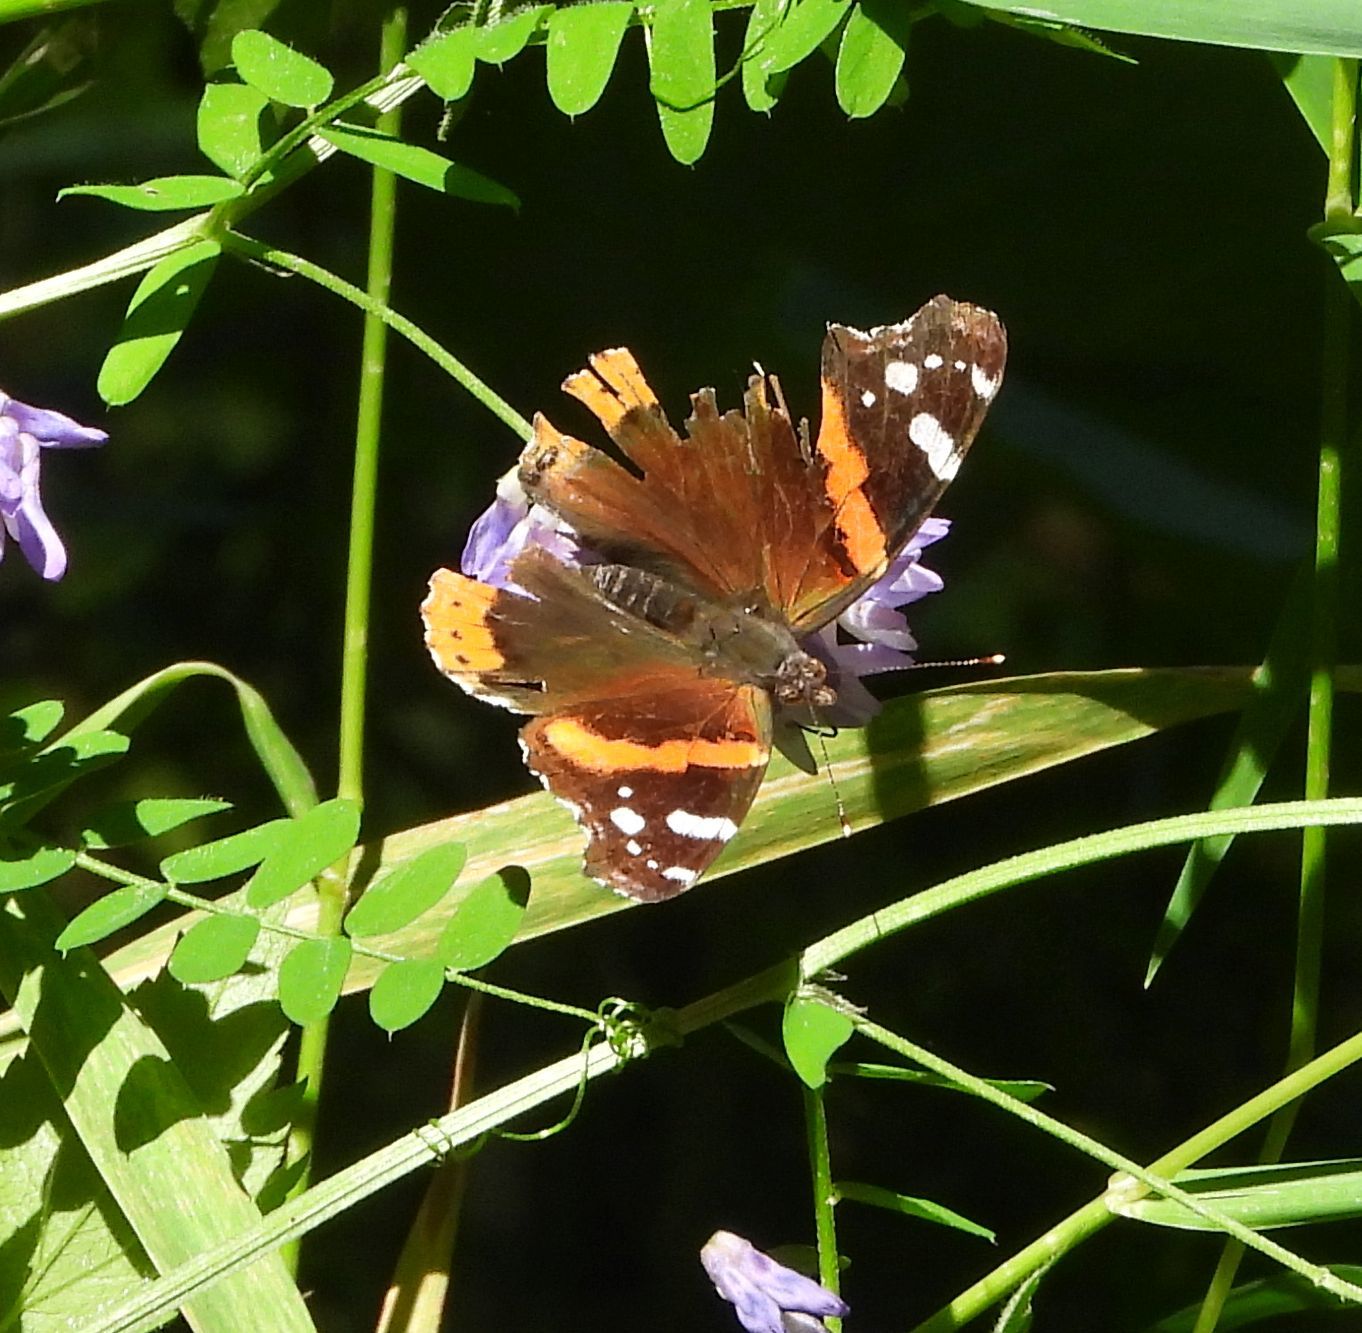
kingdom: Animalia
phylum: Arthropoda
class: Insecta
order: Lepidoptera
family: Nymphalidae
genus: Vanessa
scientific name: Vanessa atalanta
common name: Red admiral
